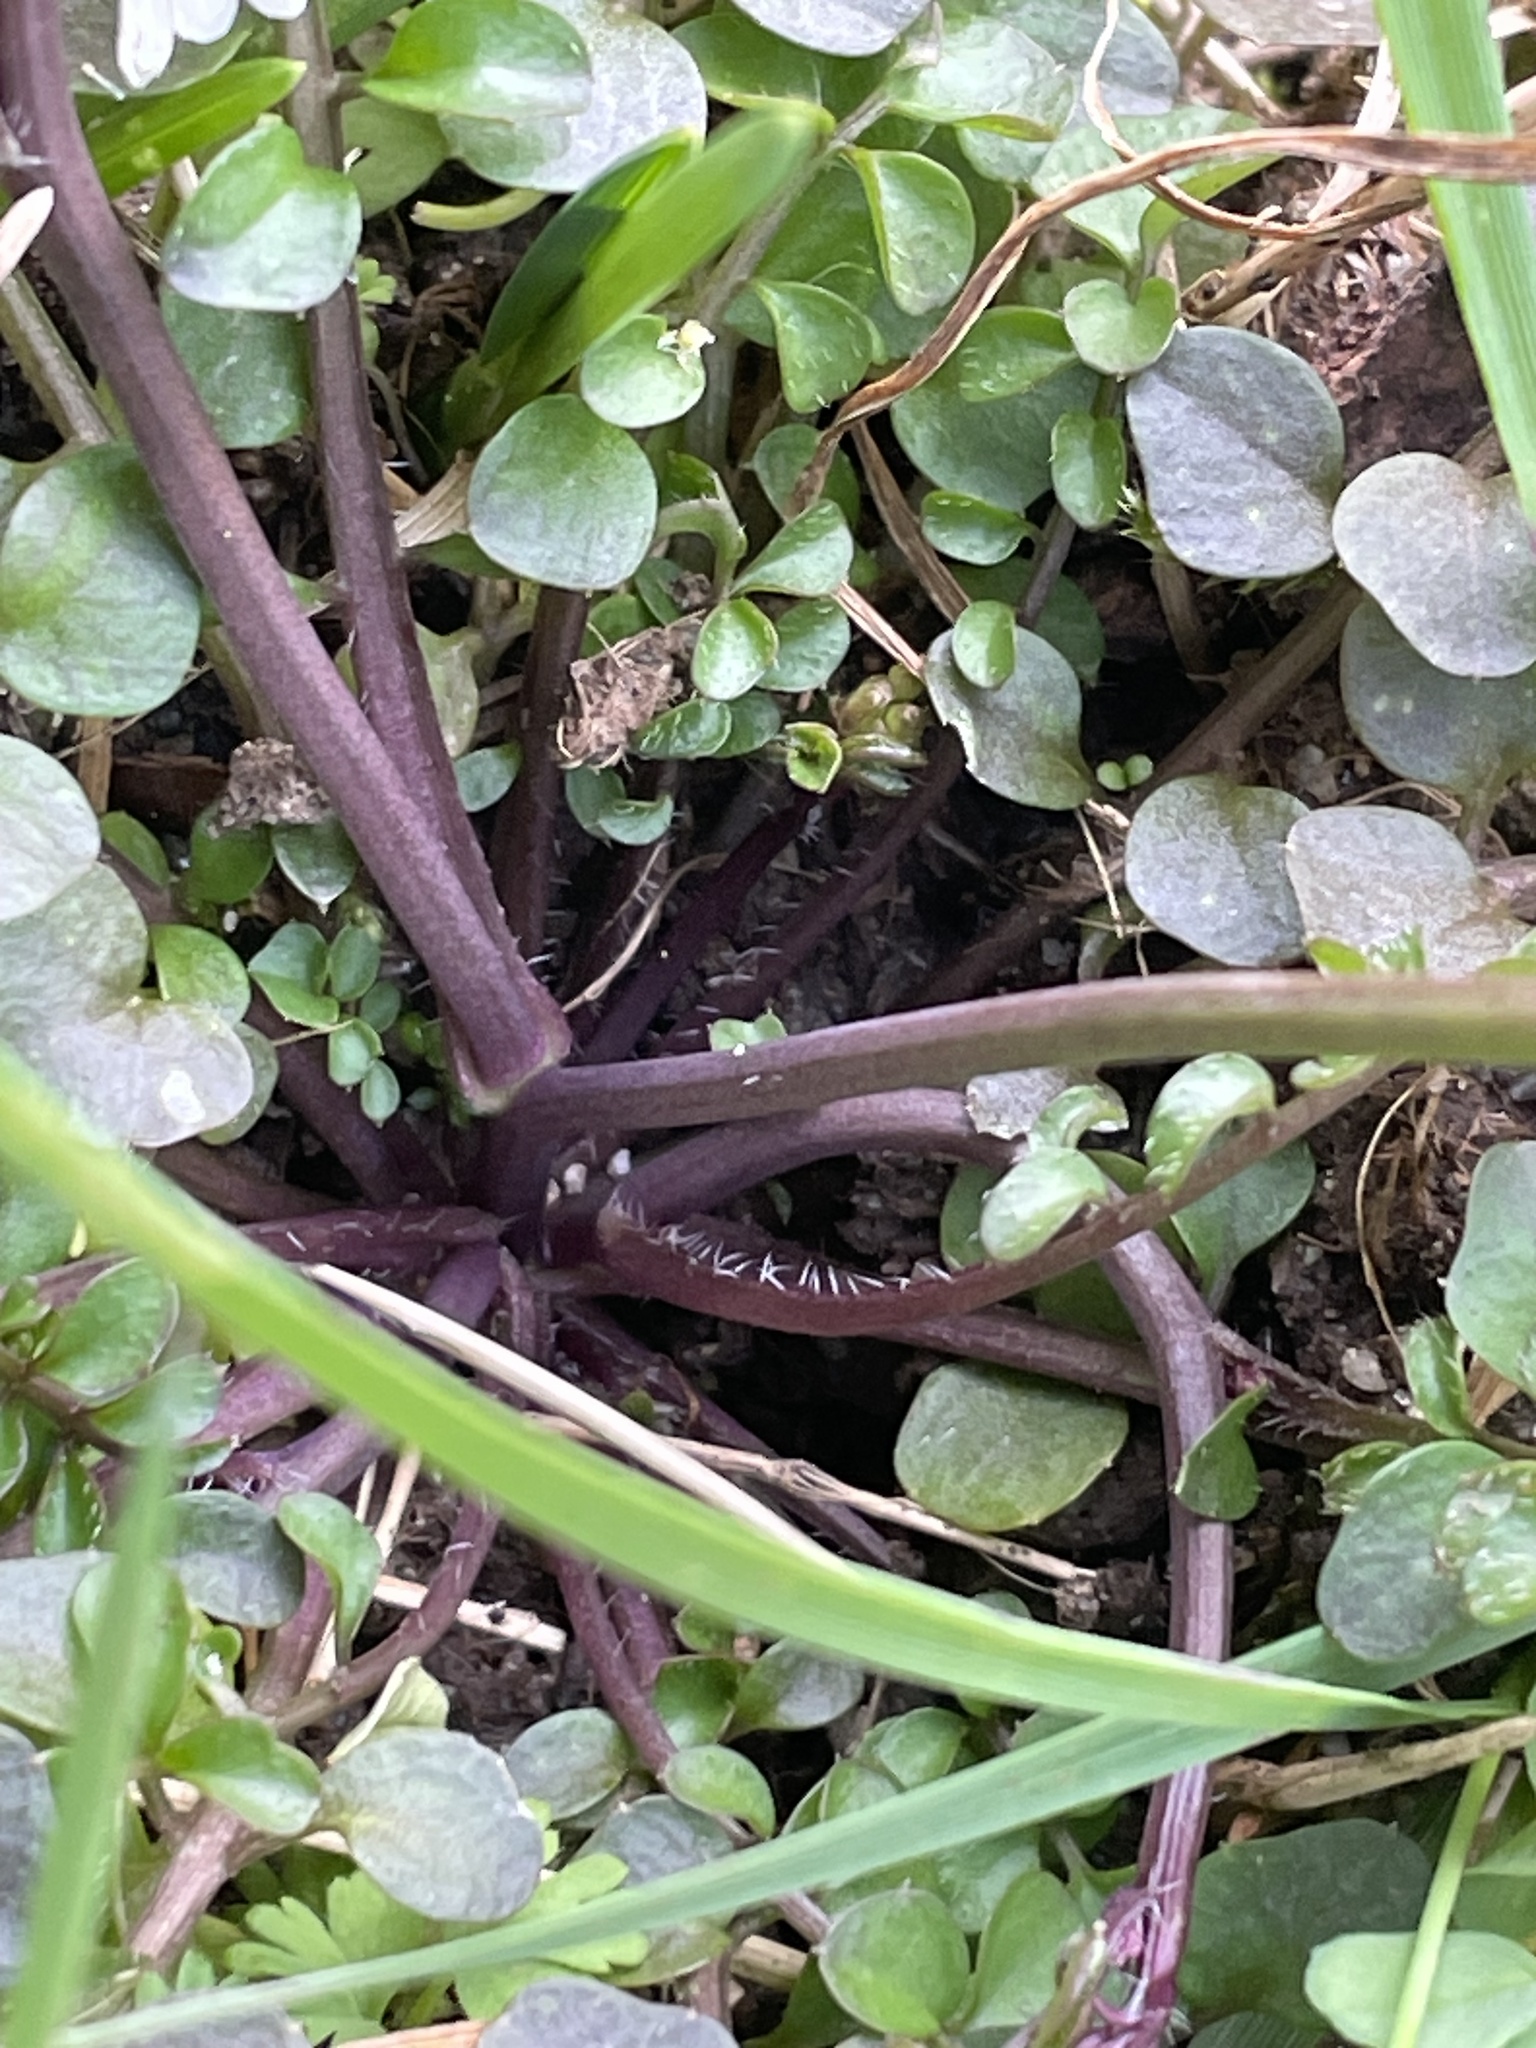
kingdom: Plantae
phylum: Tracheophyta
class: Magnoliopsida
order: Brassicales
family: Brassicaceae
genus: Cardamine
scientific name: Cardamine hirsuta
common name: Hairy bittercress
